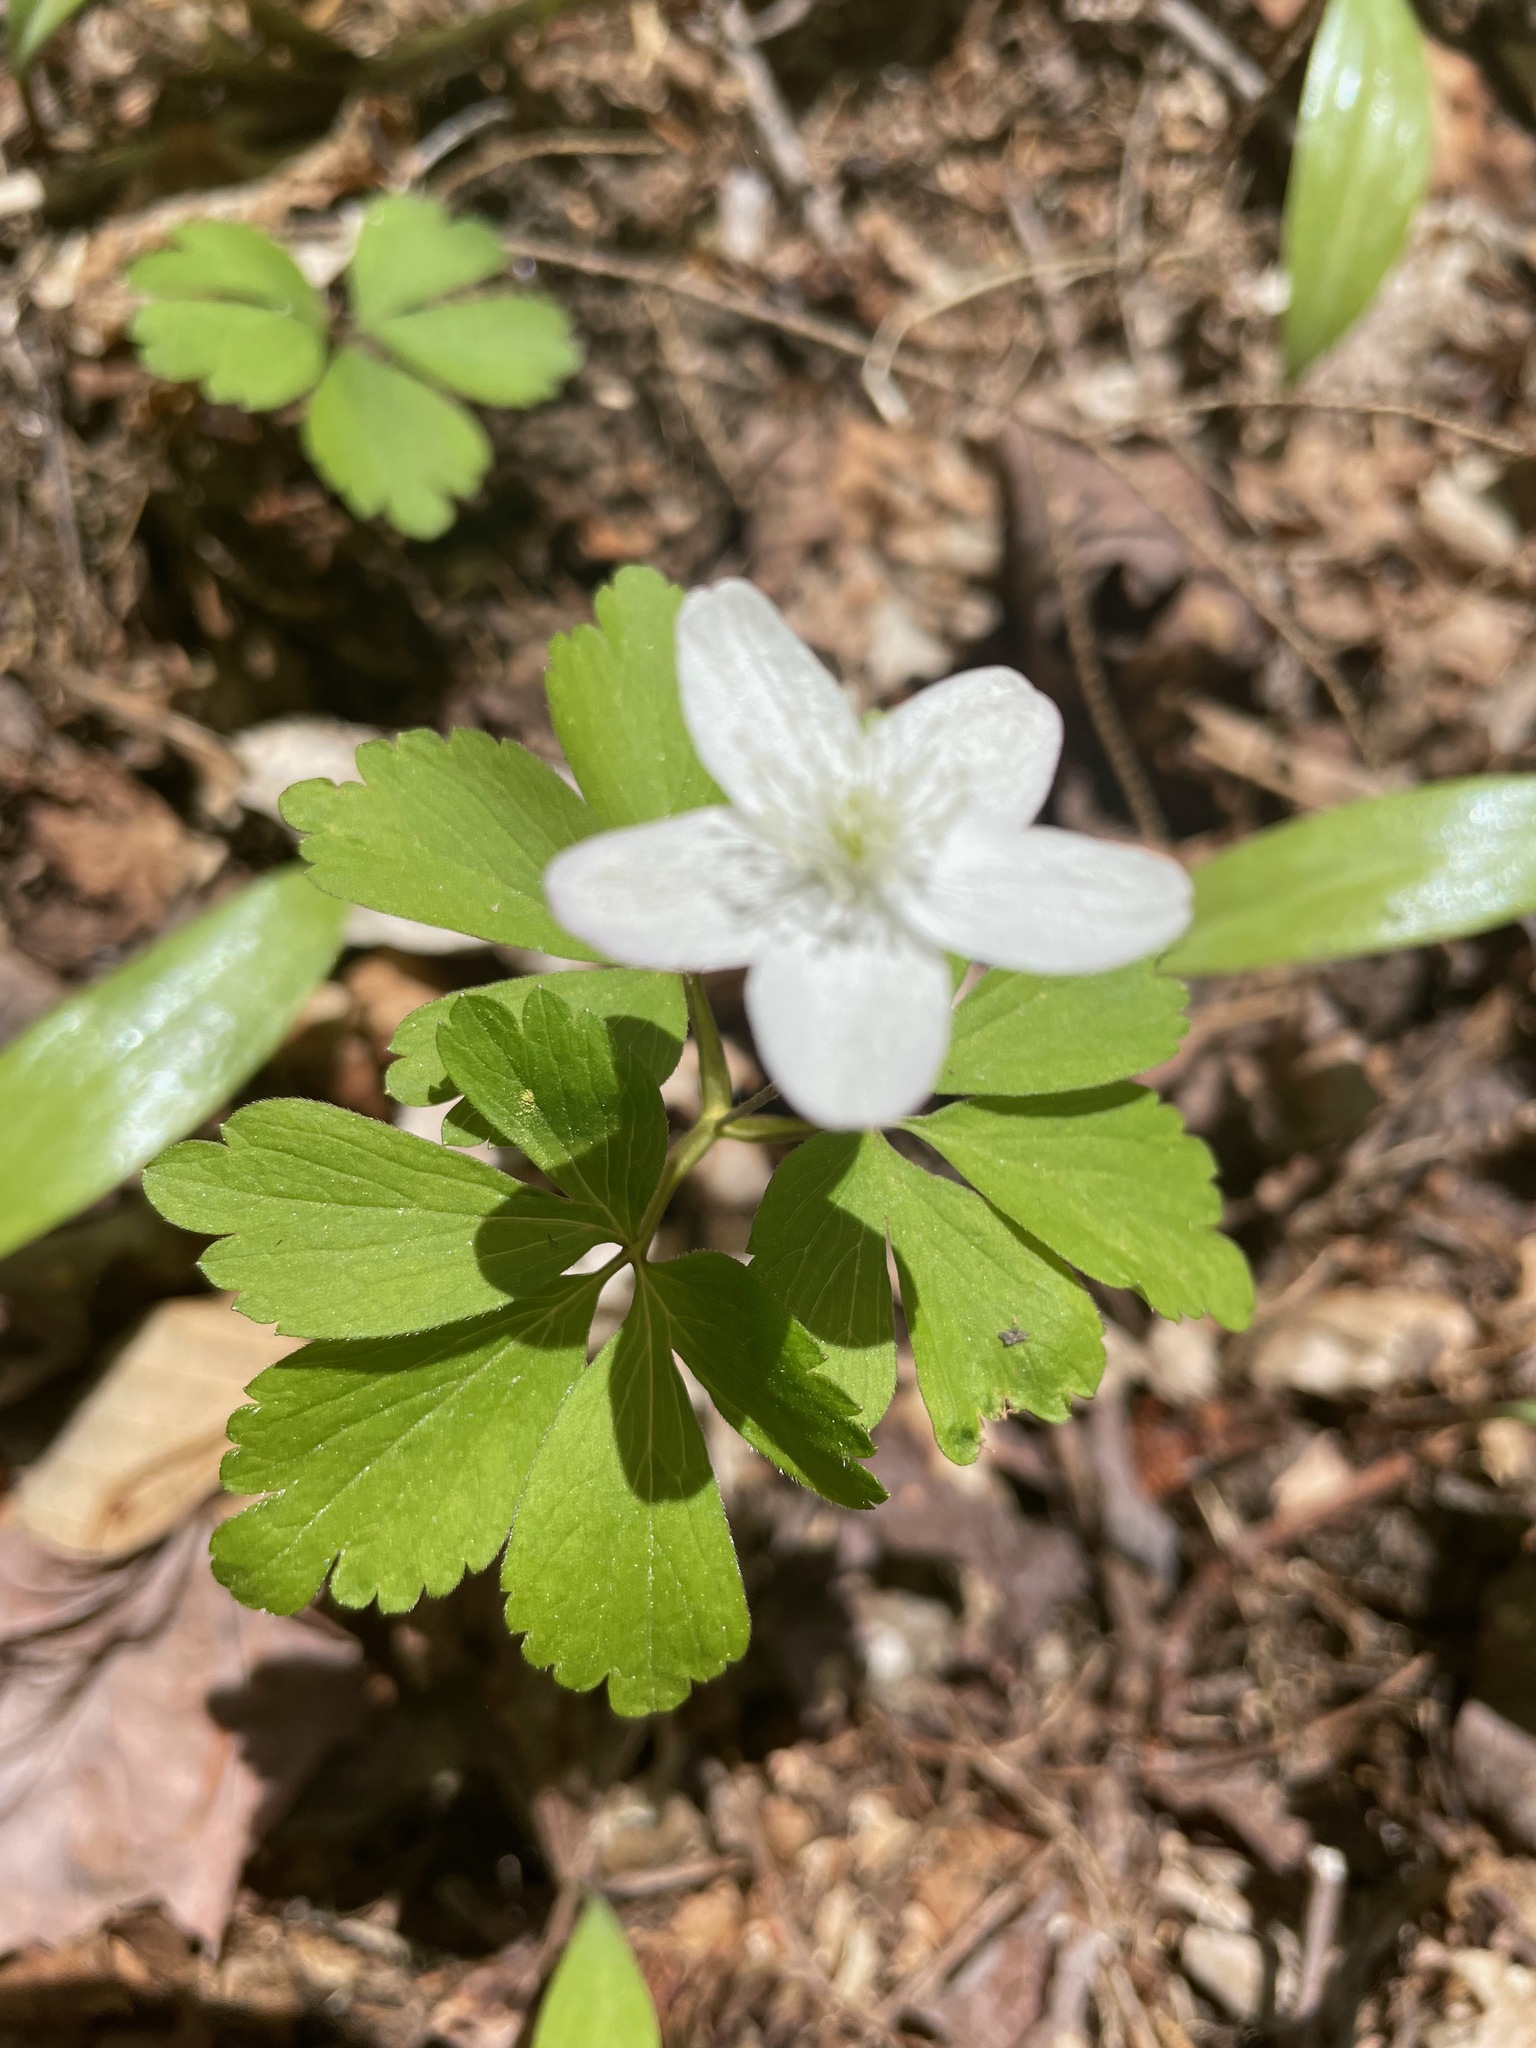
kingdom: Plantae
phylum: Tracheophyta
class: Magnoliopsida
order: Ranunculales
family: Ranunculaceae
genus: Anemone
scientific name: Anemone quinquefolia
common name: Wood anemone
